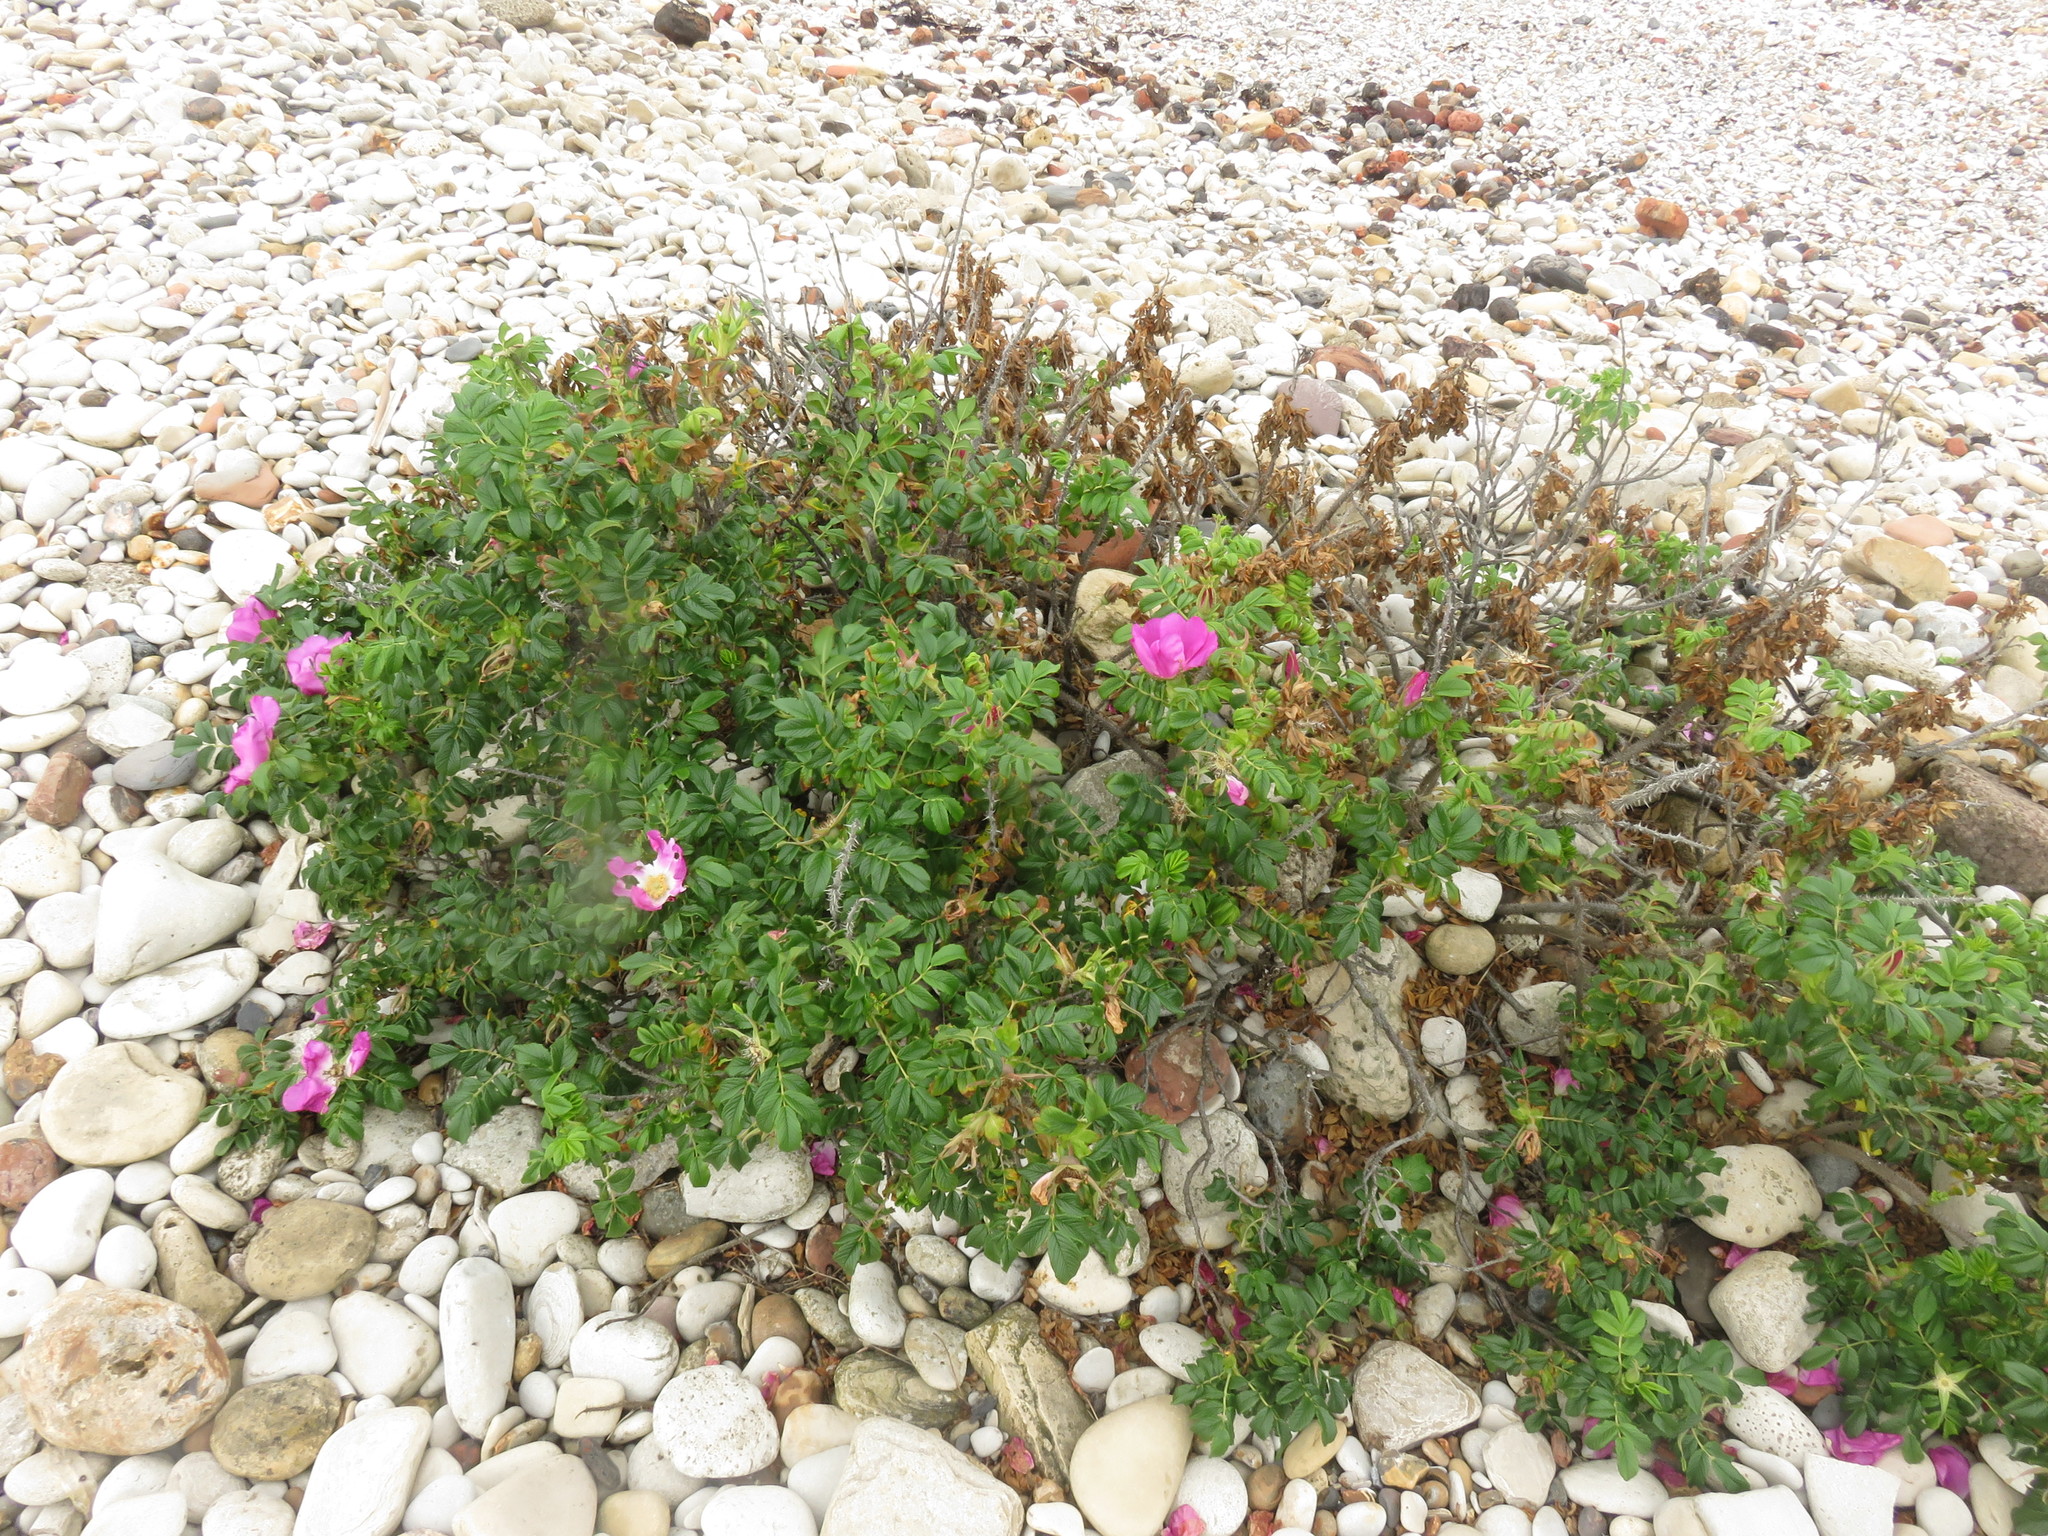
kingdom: Plantae
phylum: Tracheophyta
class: Magnoliopsida
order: Rosales
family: Rosaceae
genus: Rosa
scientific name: Rosa rugosa
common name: Japanese rose
